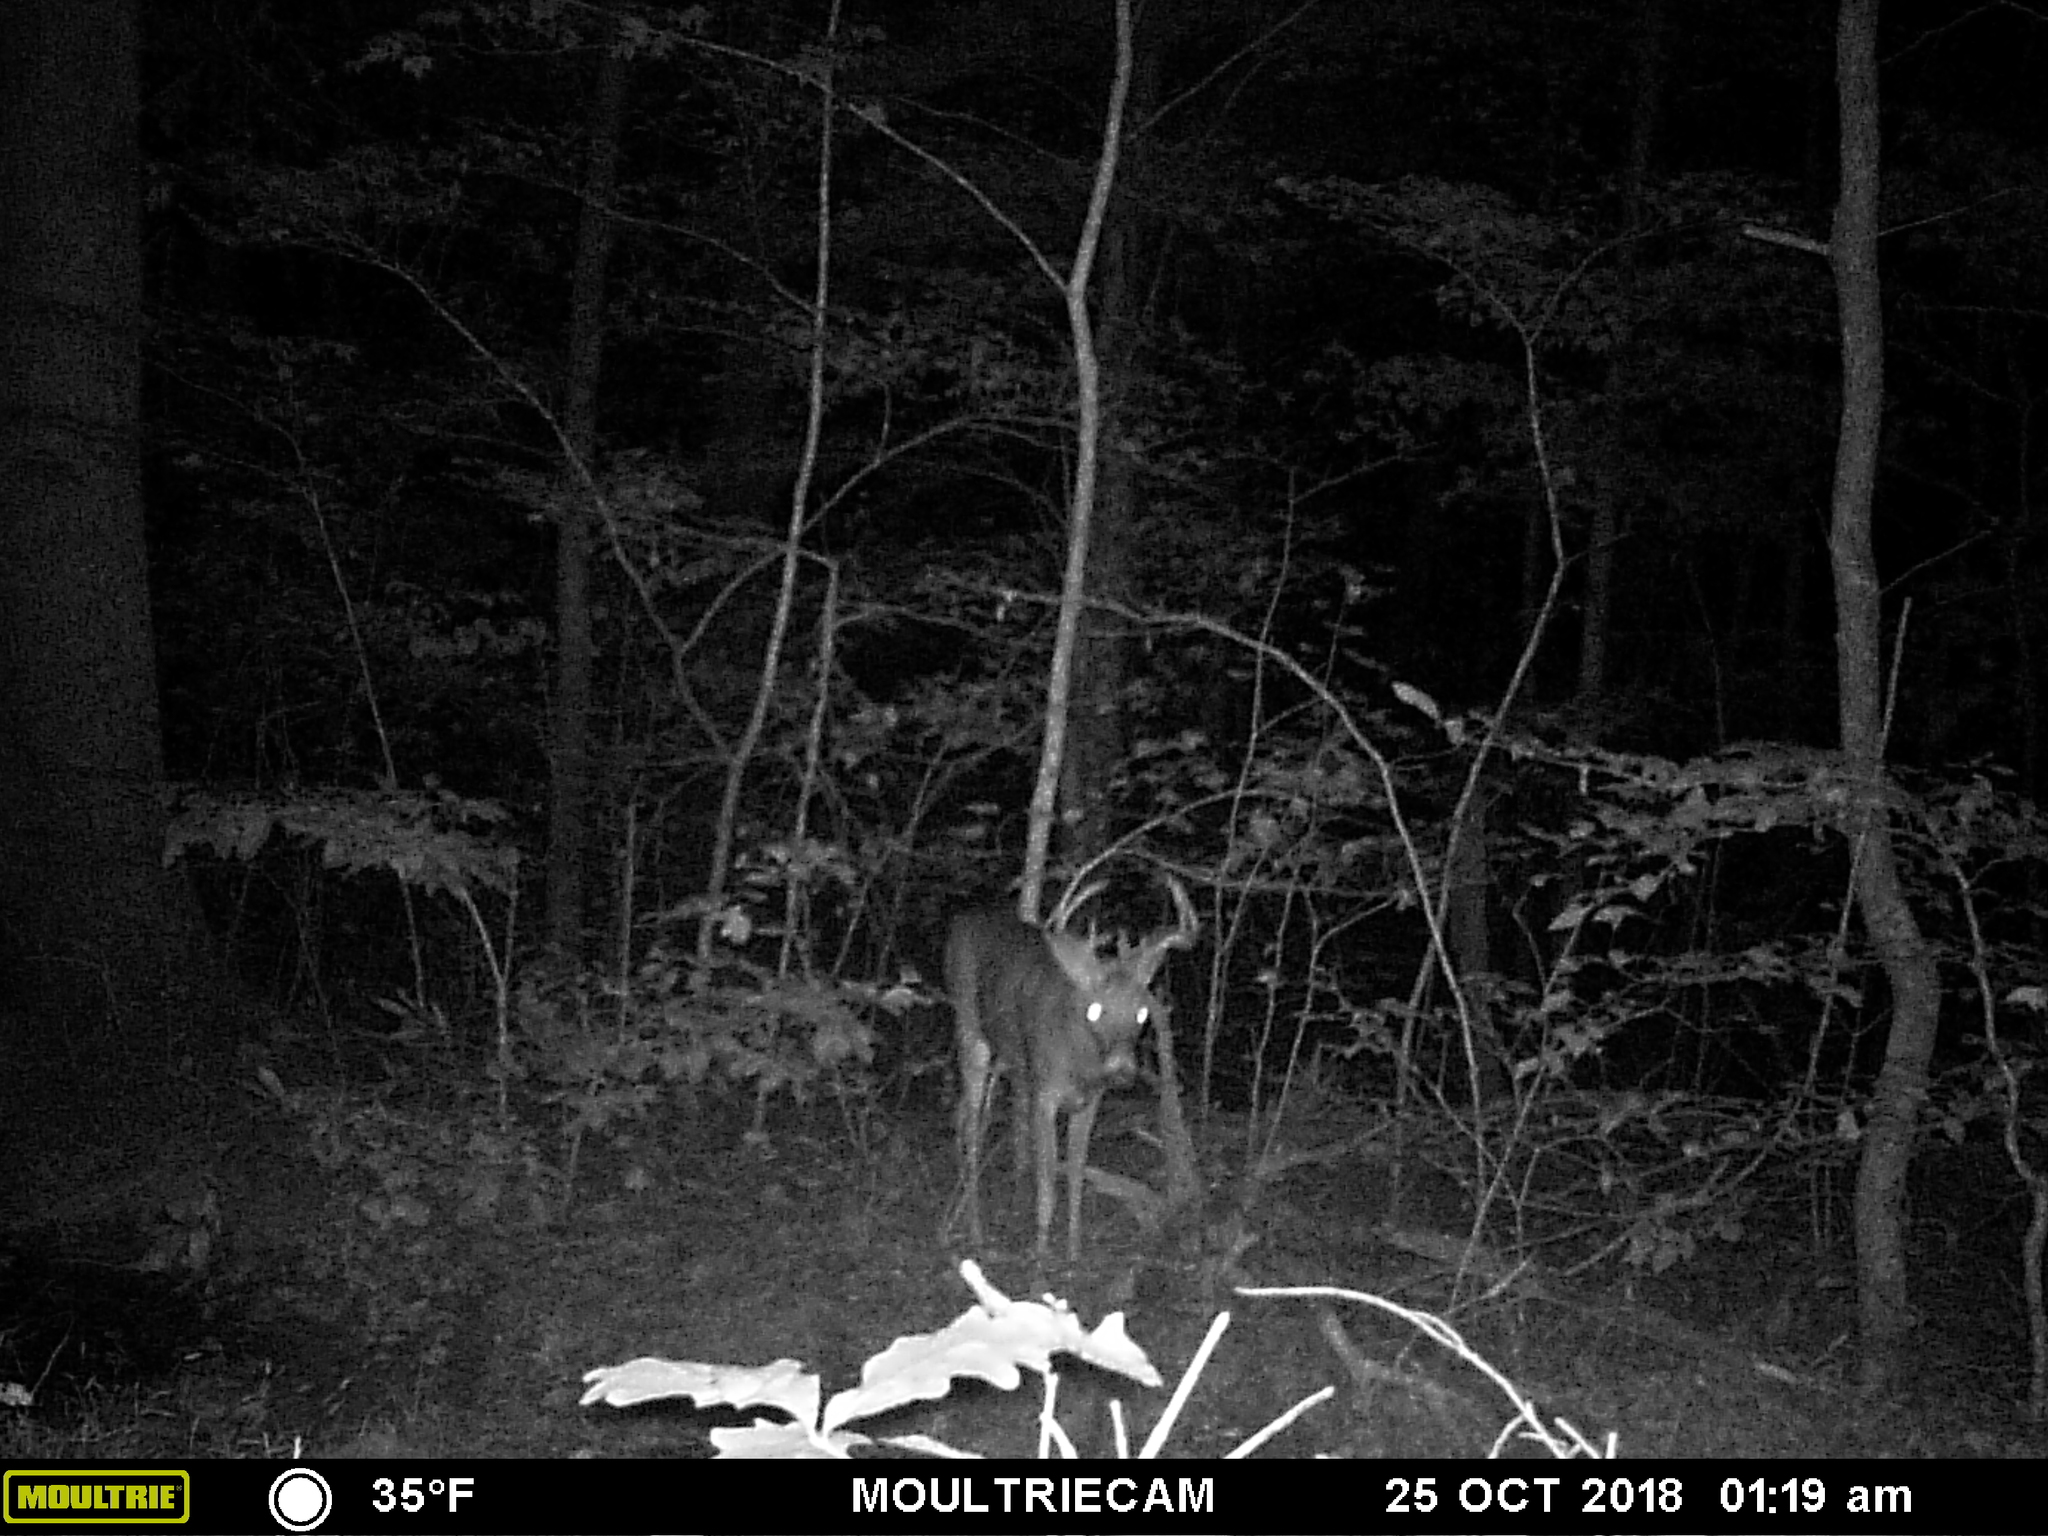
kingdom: Animalia
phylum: Chordata
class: Mammalia
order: Artiodactyla
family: Cervidae
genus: Odocoileus
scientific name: Odocoileus virginianus
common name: White-tailed deer
